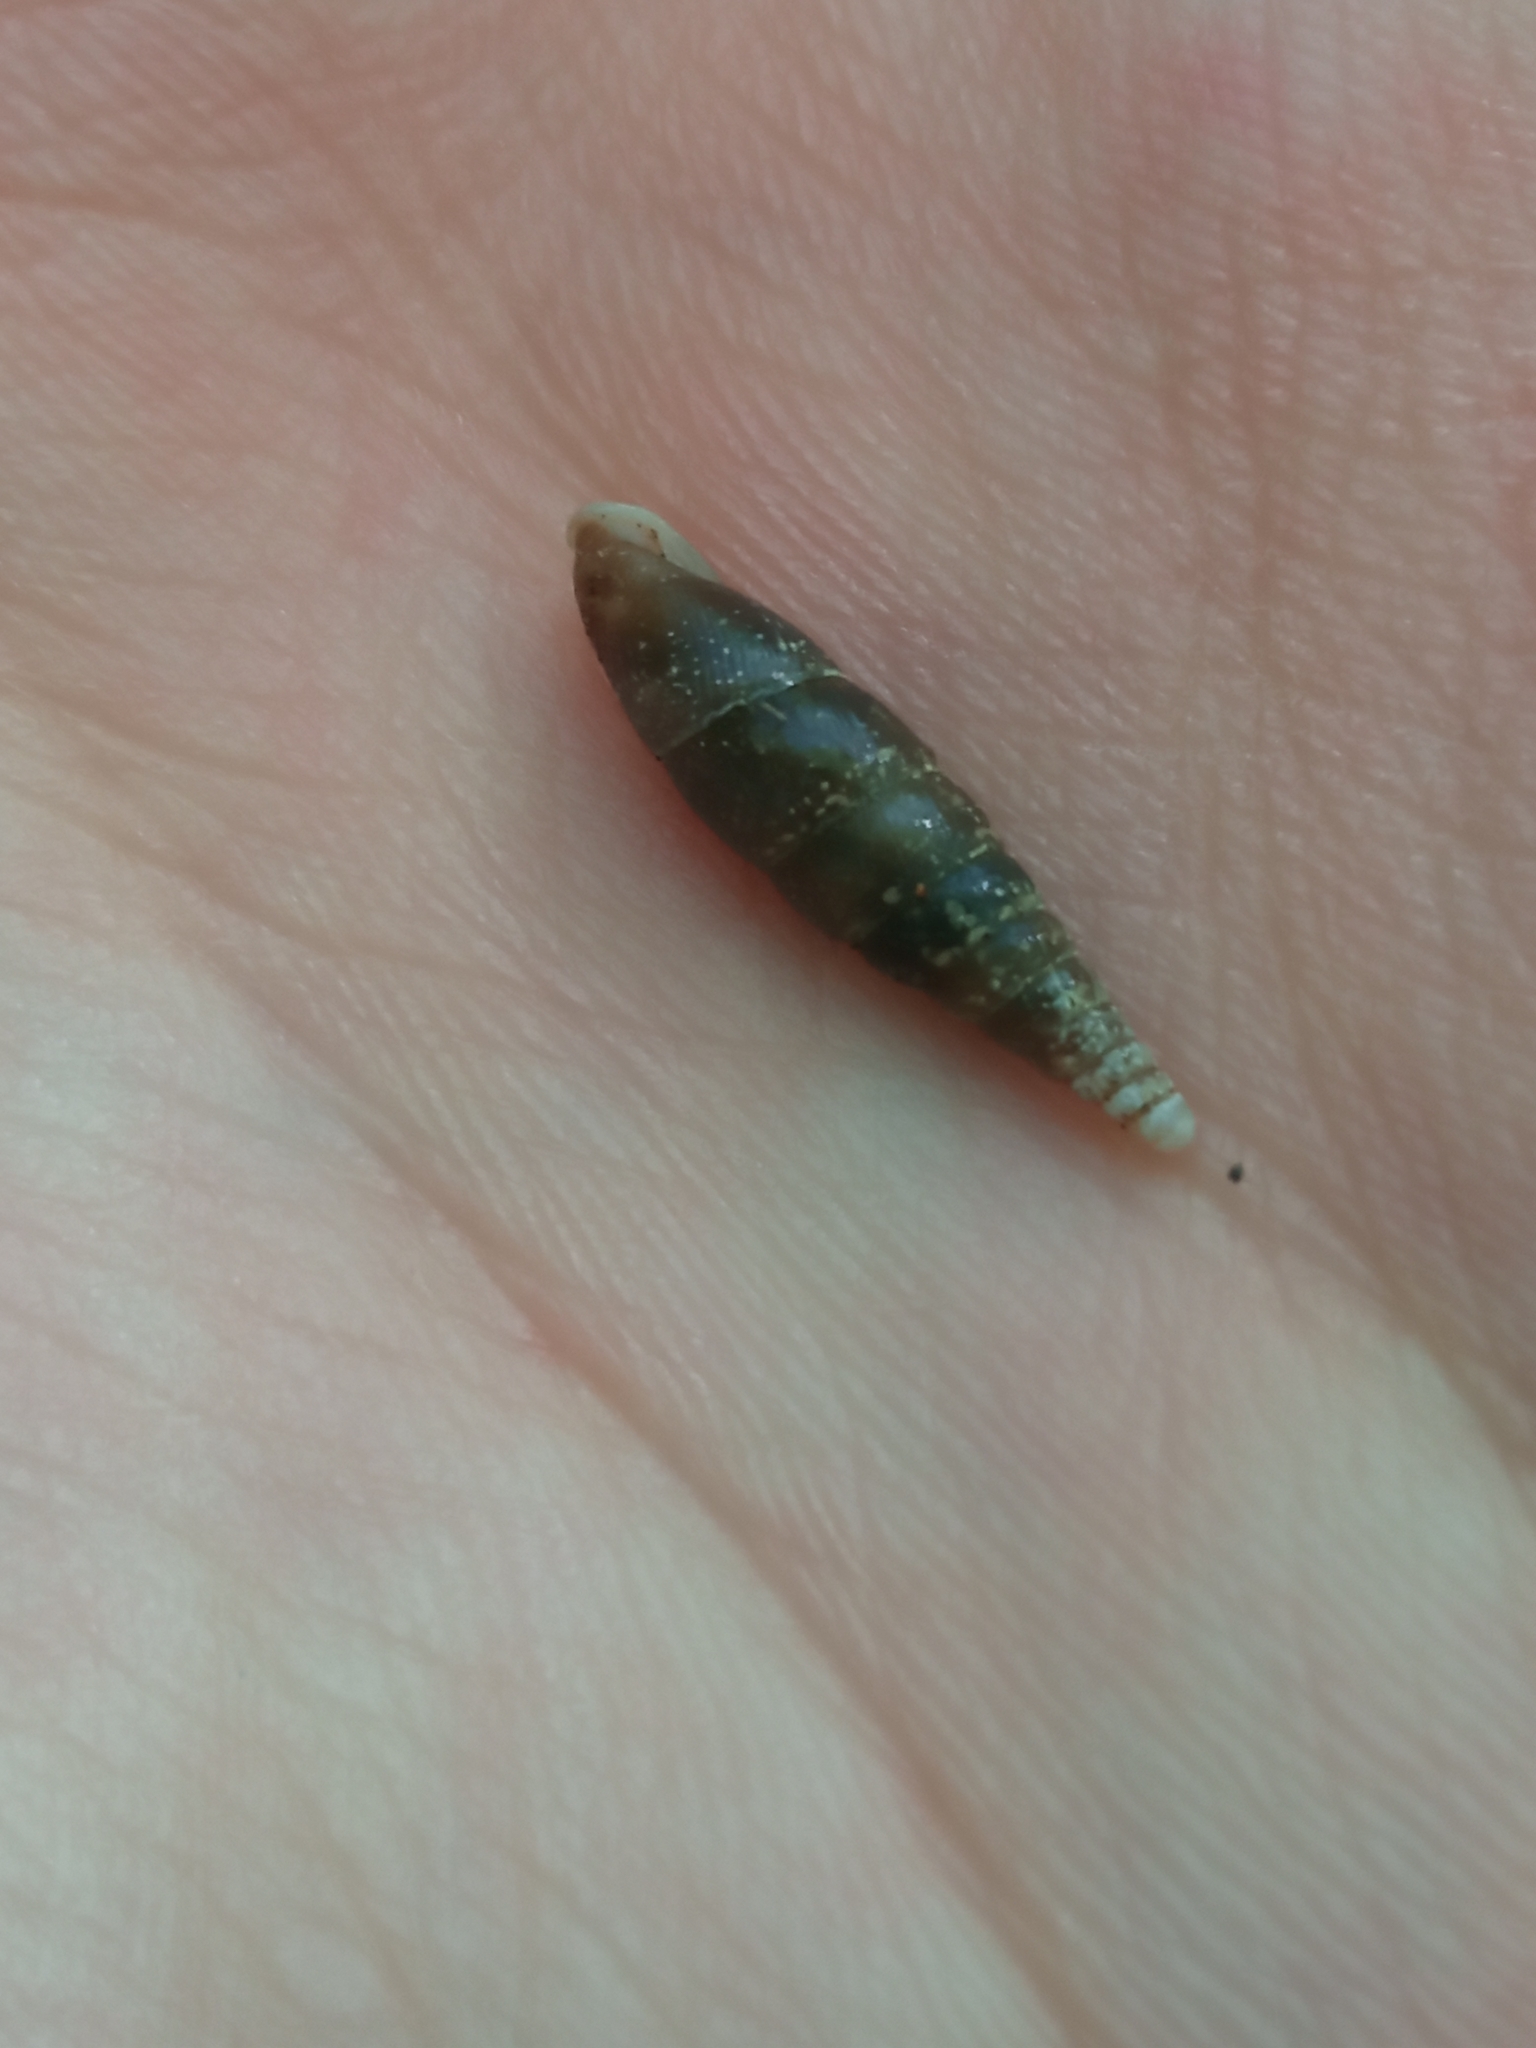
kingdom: Animalia
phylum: Mollusca
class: Gastropoda
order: Stylommatophora
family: Clausiliidae
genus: Cochlodina
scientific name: Cochlodina laminata
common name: Plaited door snail
